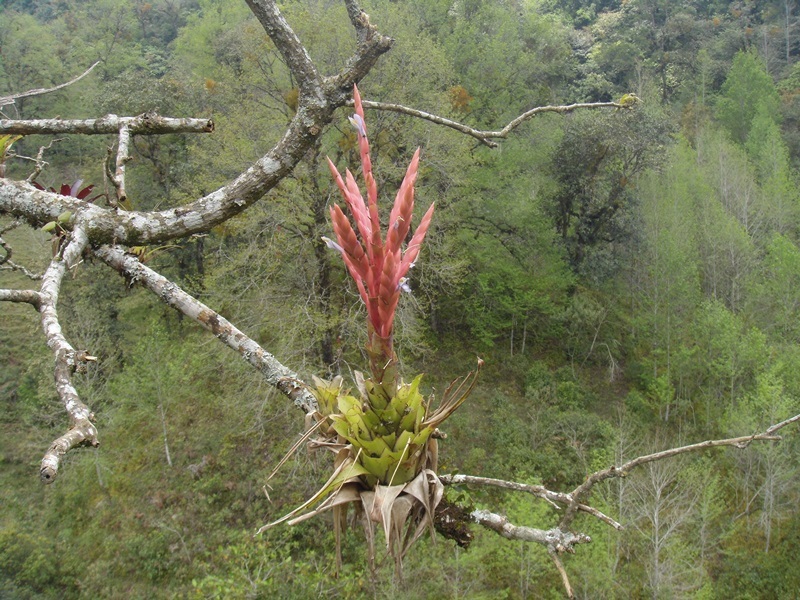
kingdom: Plantae
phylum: Tracheophyta
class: Liliopsida
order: Poales
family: Bromeliaceae
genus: Tillandsia
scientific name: Tillandsia deppeana
